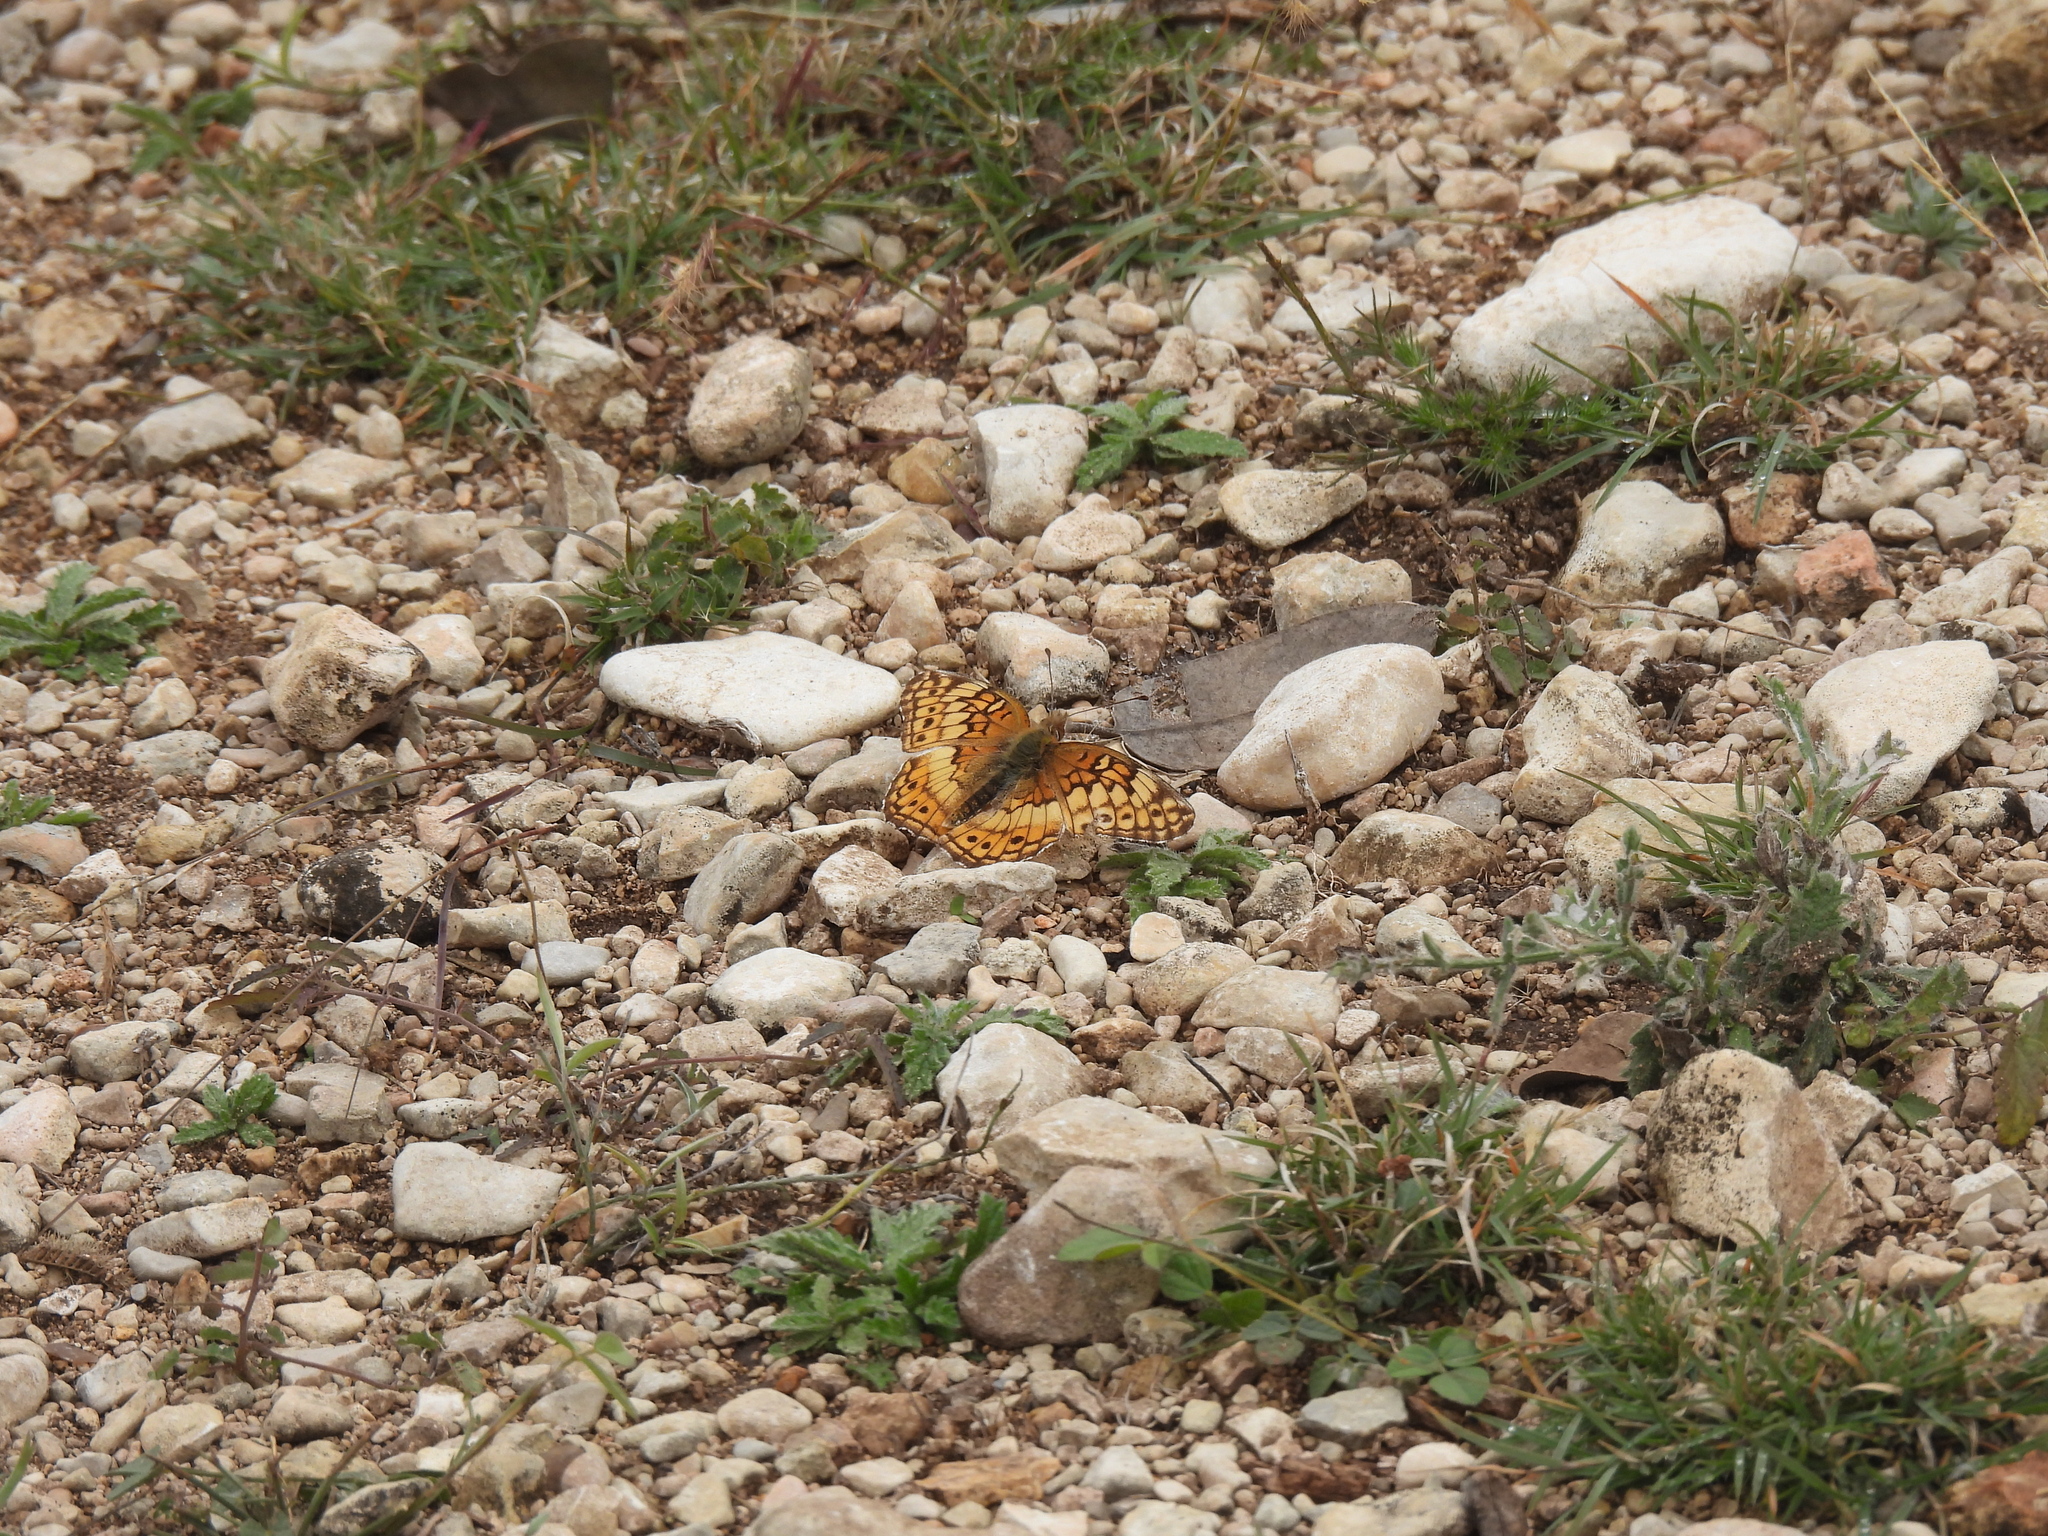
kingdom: Animalia
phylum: Arthropoda
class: Insecta
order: Lepidoptera
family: Nymphalidae
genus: Euptoieta
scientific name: Euptoieta claudia
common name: Variegated fritillary
